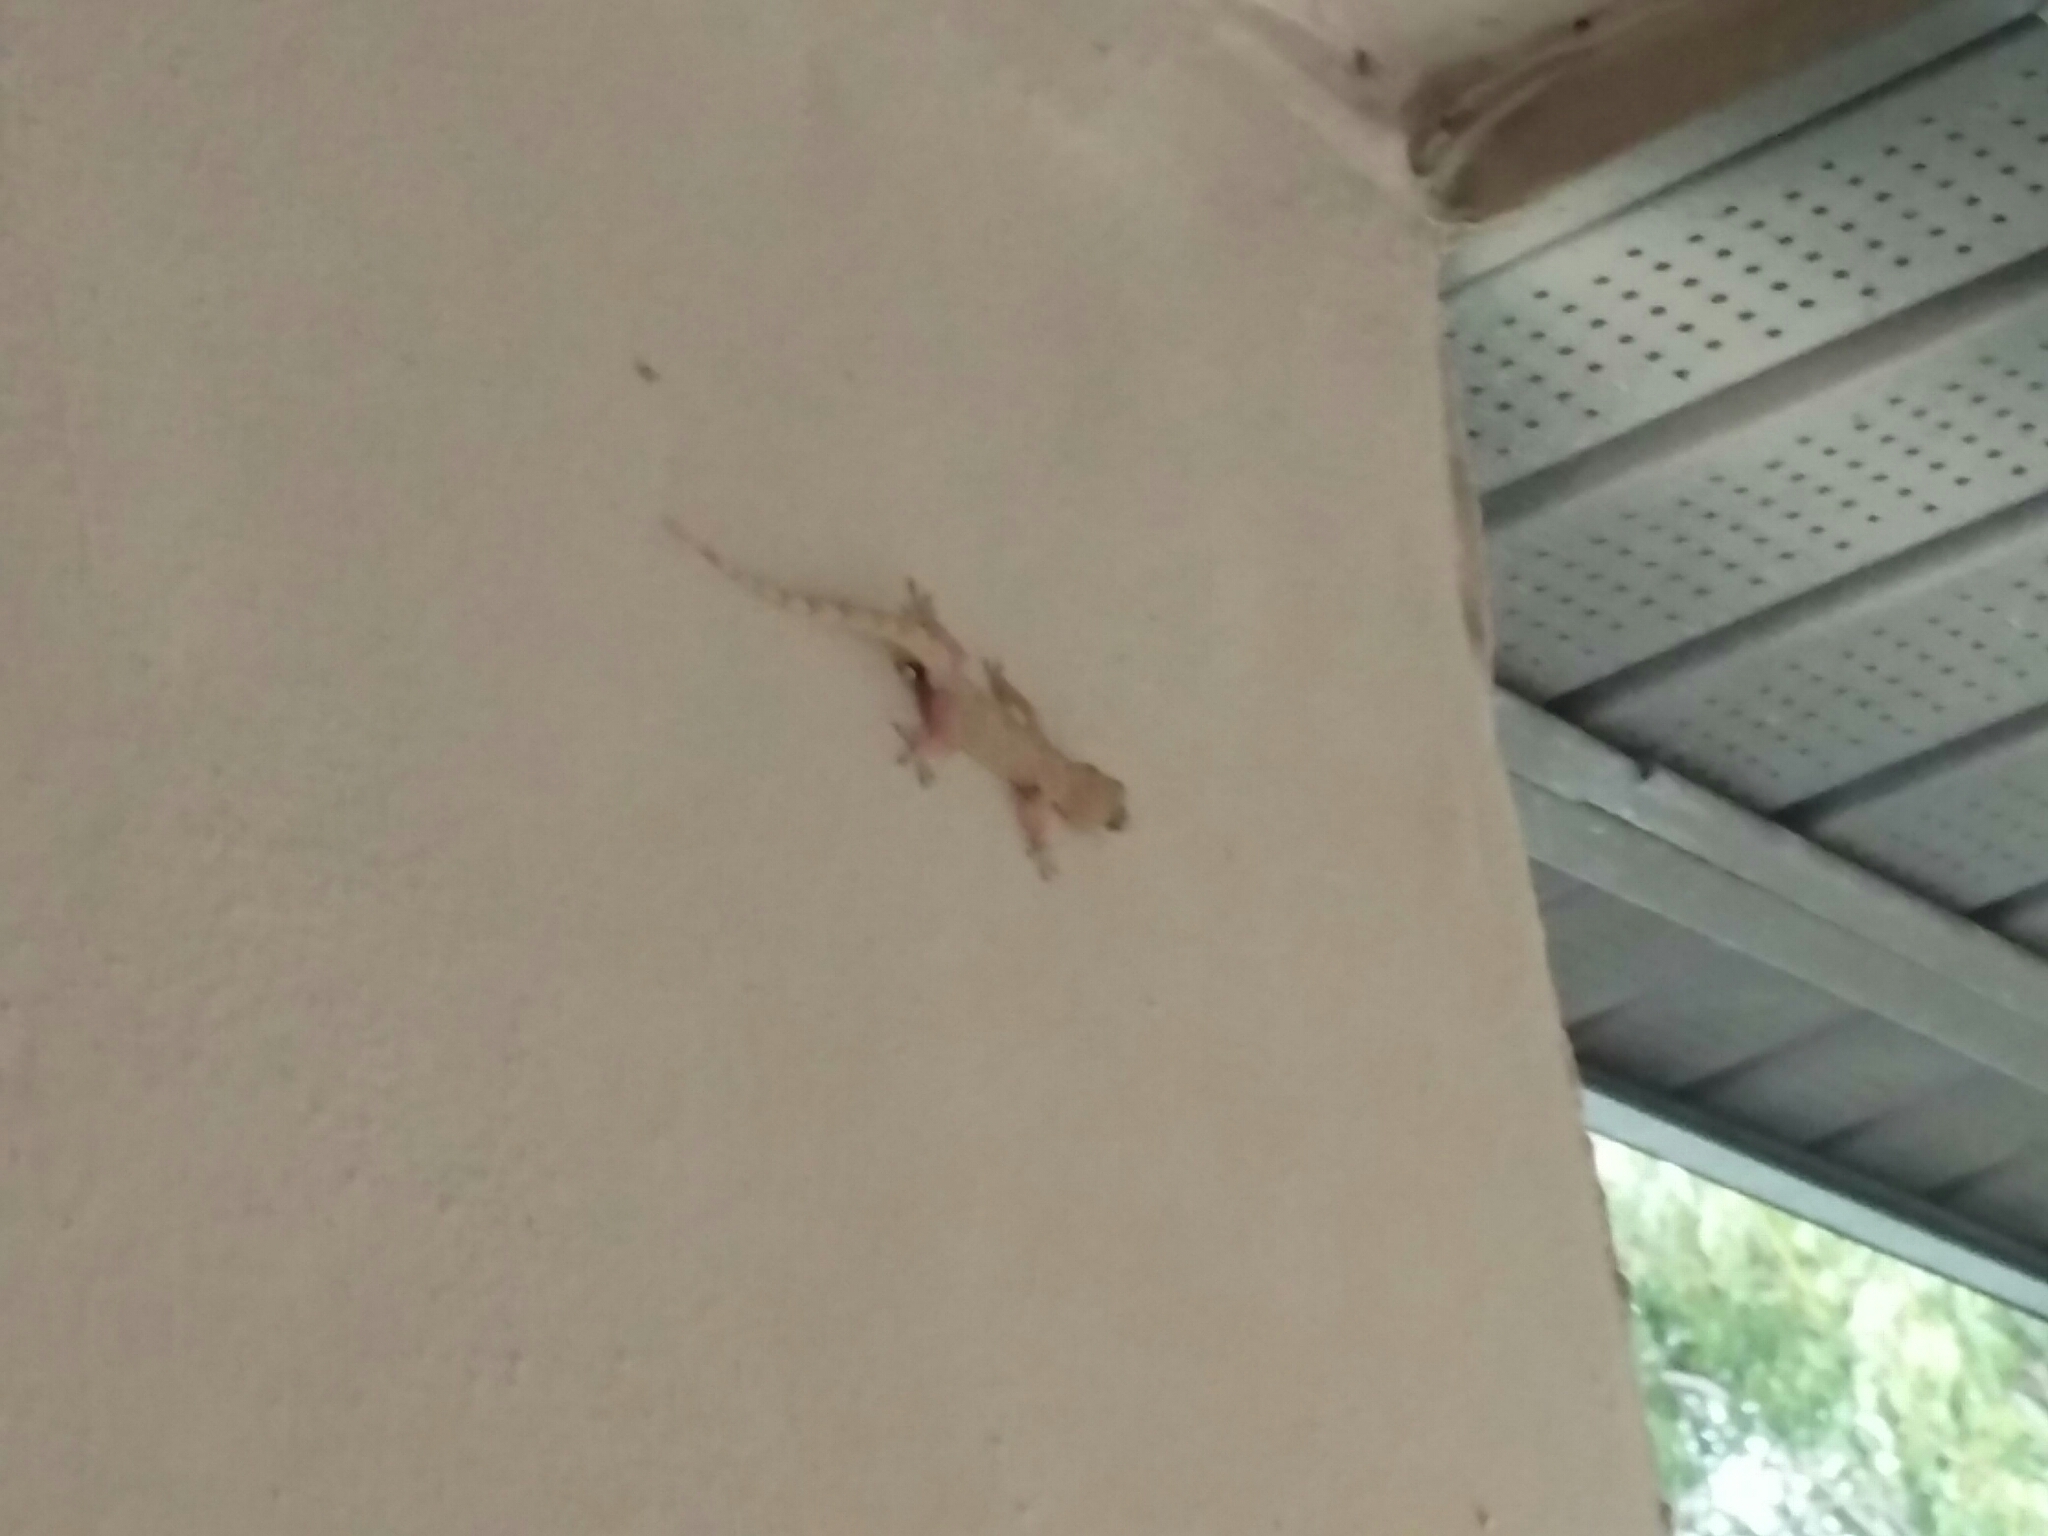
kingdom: Animalia
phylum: Chordata
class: Squamata
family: Gekkonidae
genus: Hemidactylus
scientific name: Hemidactylus mabouia
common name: House gecko
